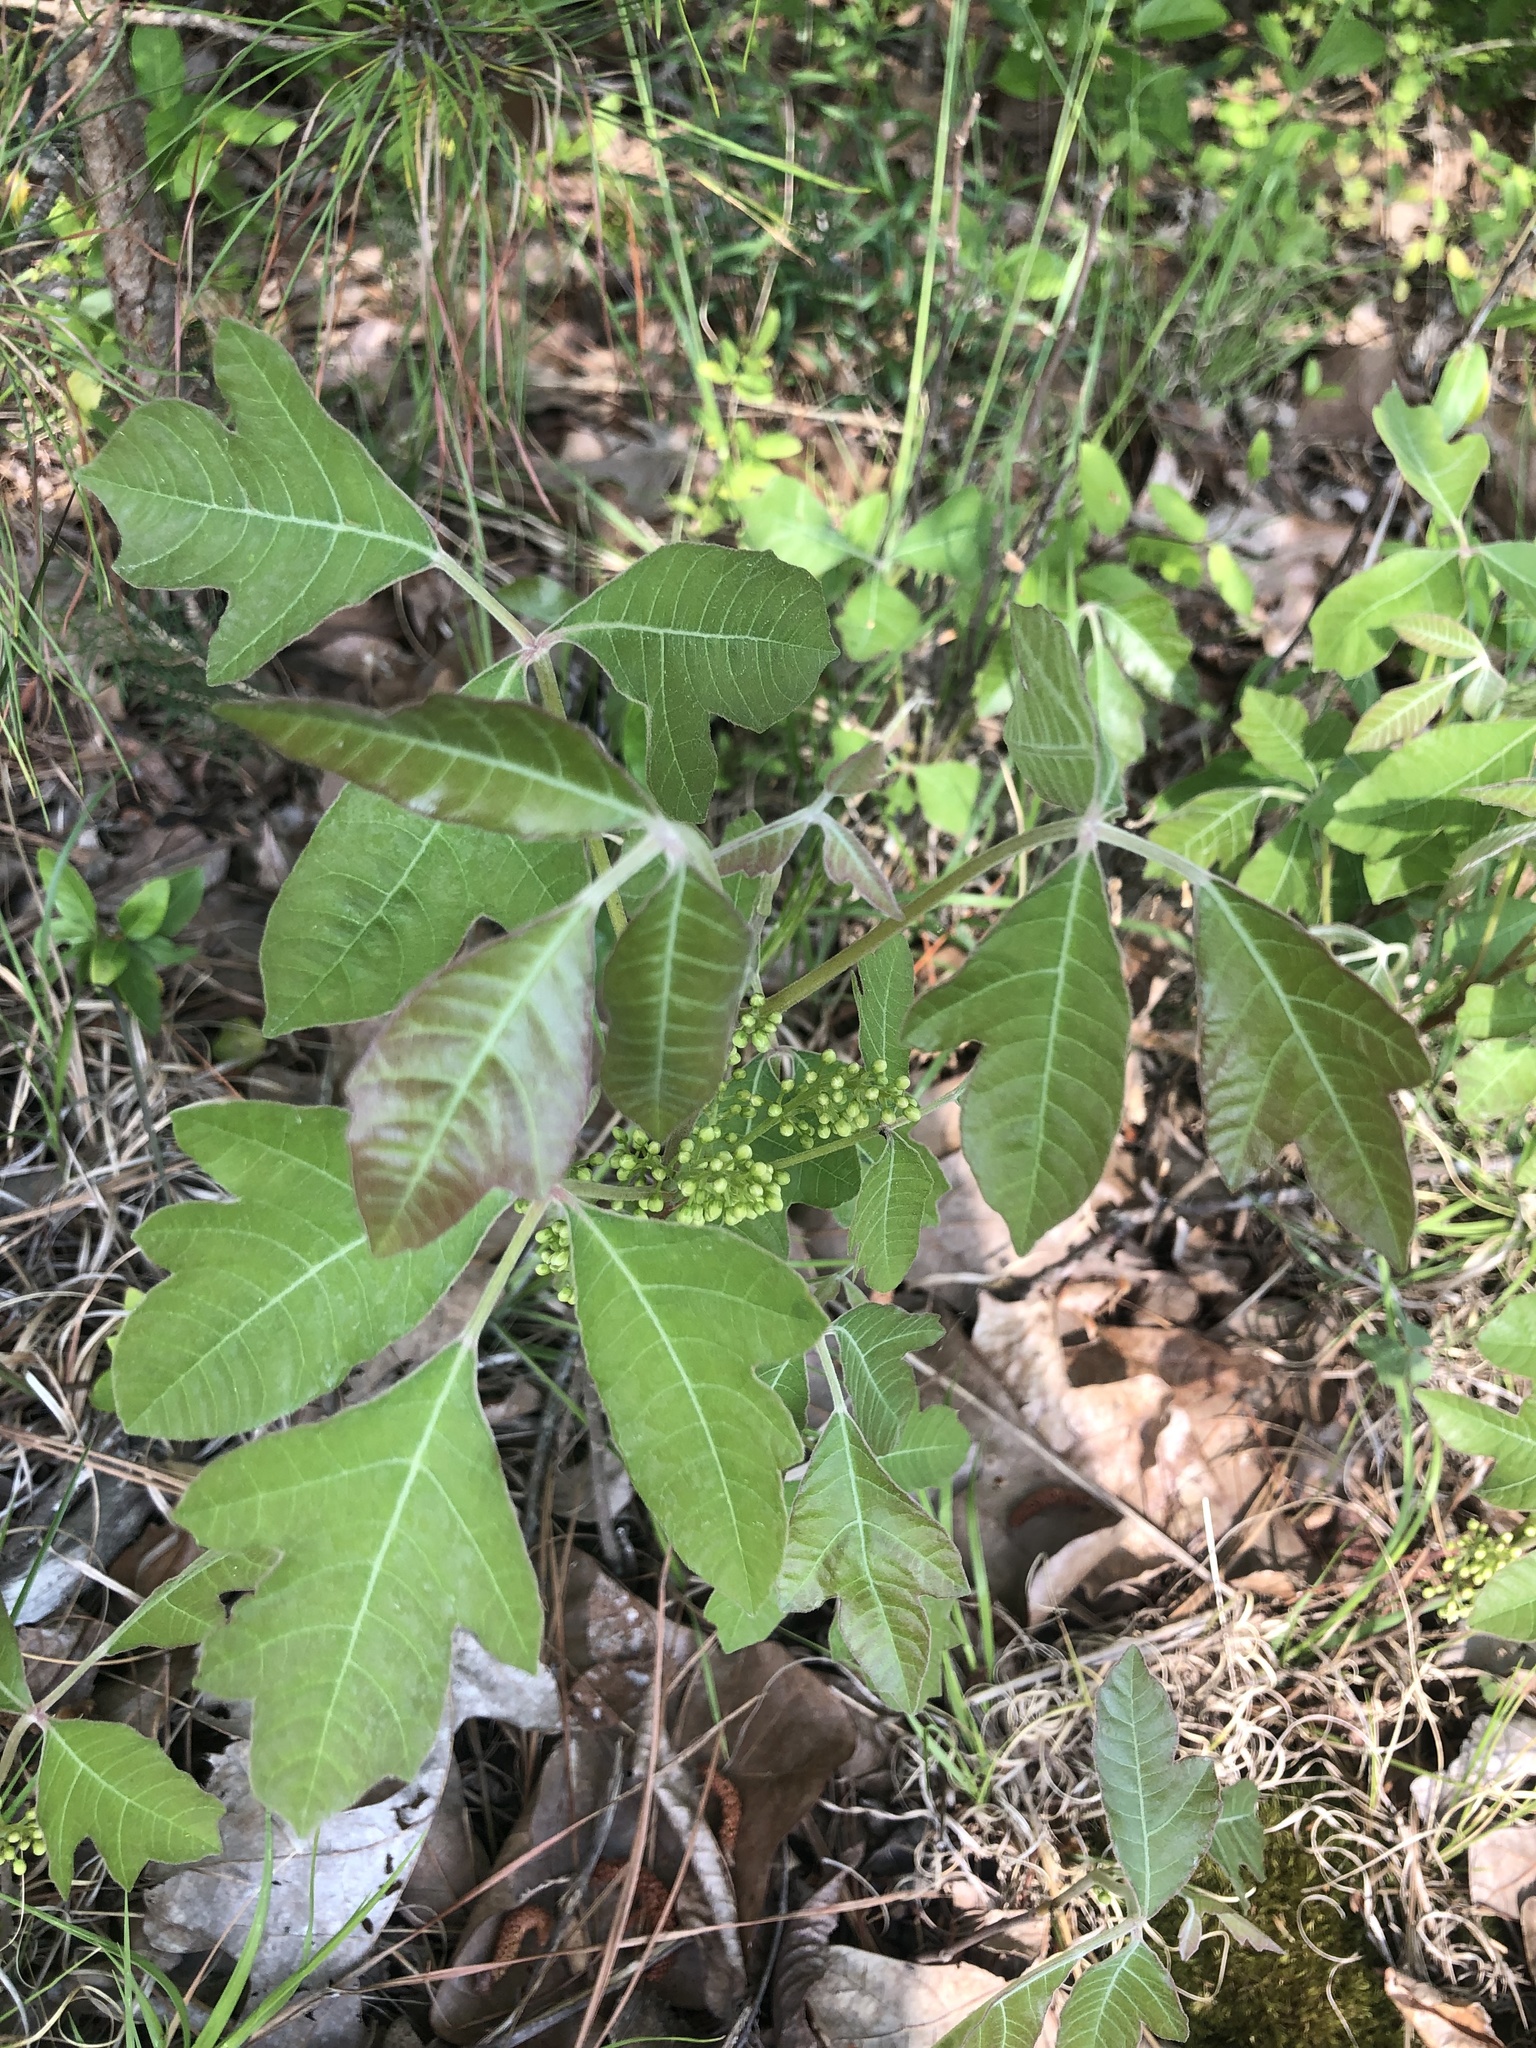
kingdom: Plantae
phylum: Tracheophyta
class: Magnoliopsida
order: Sapindales
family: Anacardiaceae
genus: Toxicodendron
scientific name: Toxicodendron pubescens
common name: Eastern poison-oak
